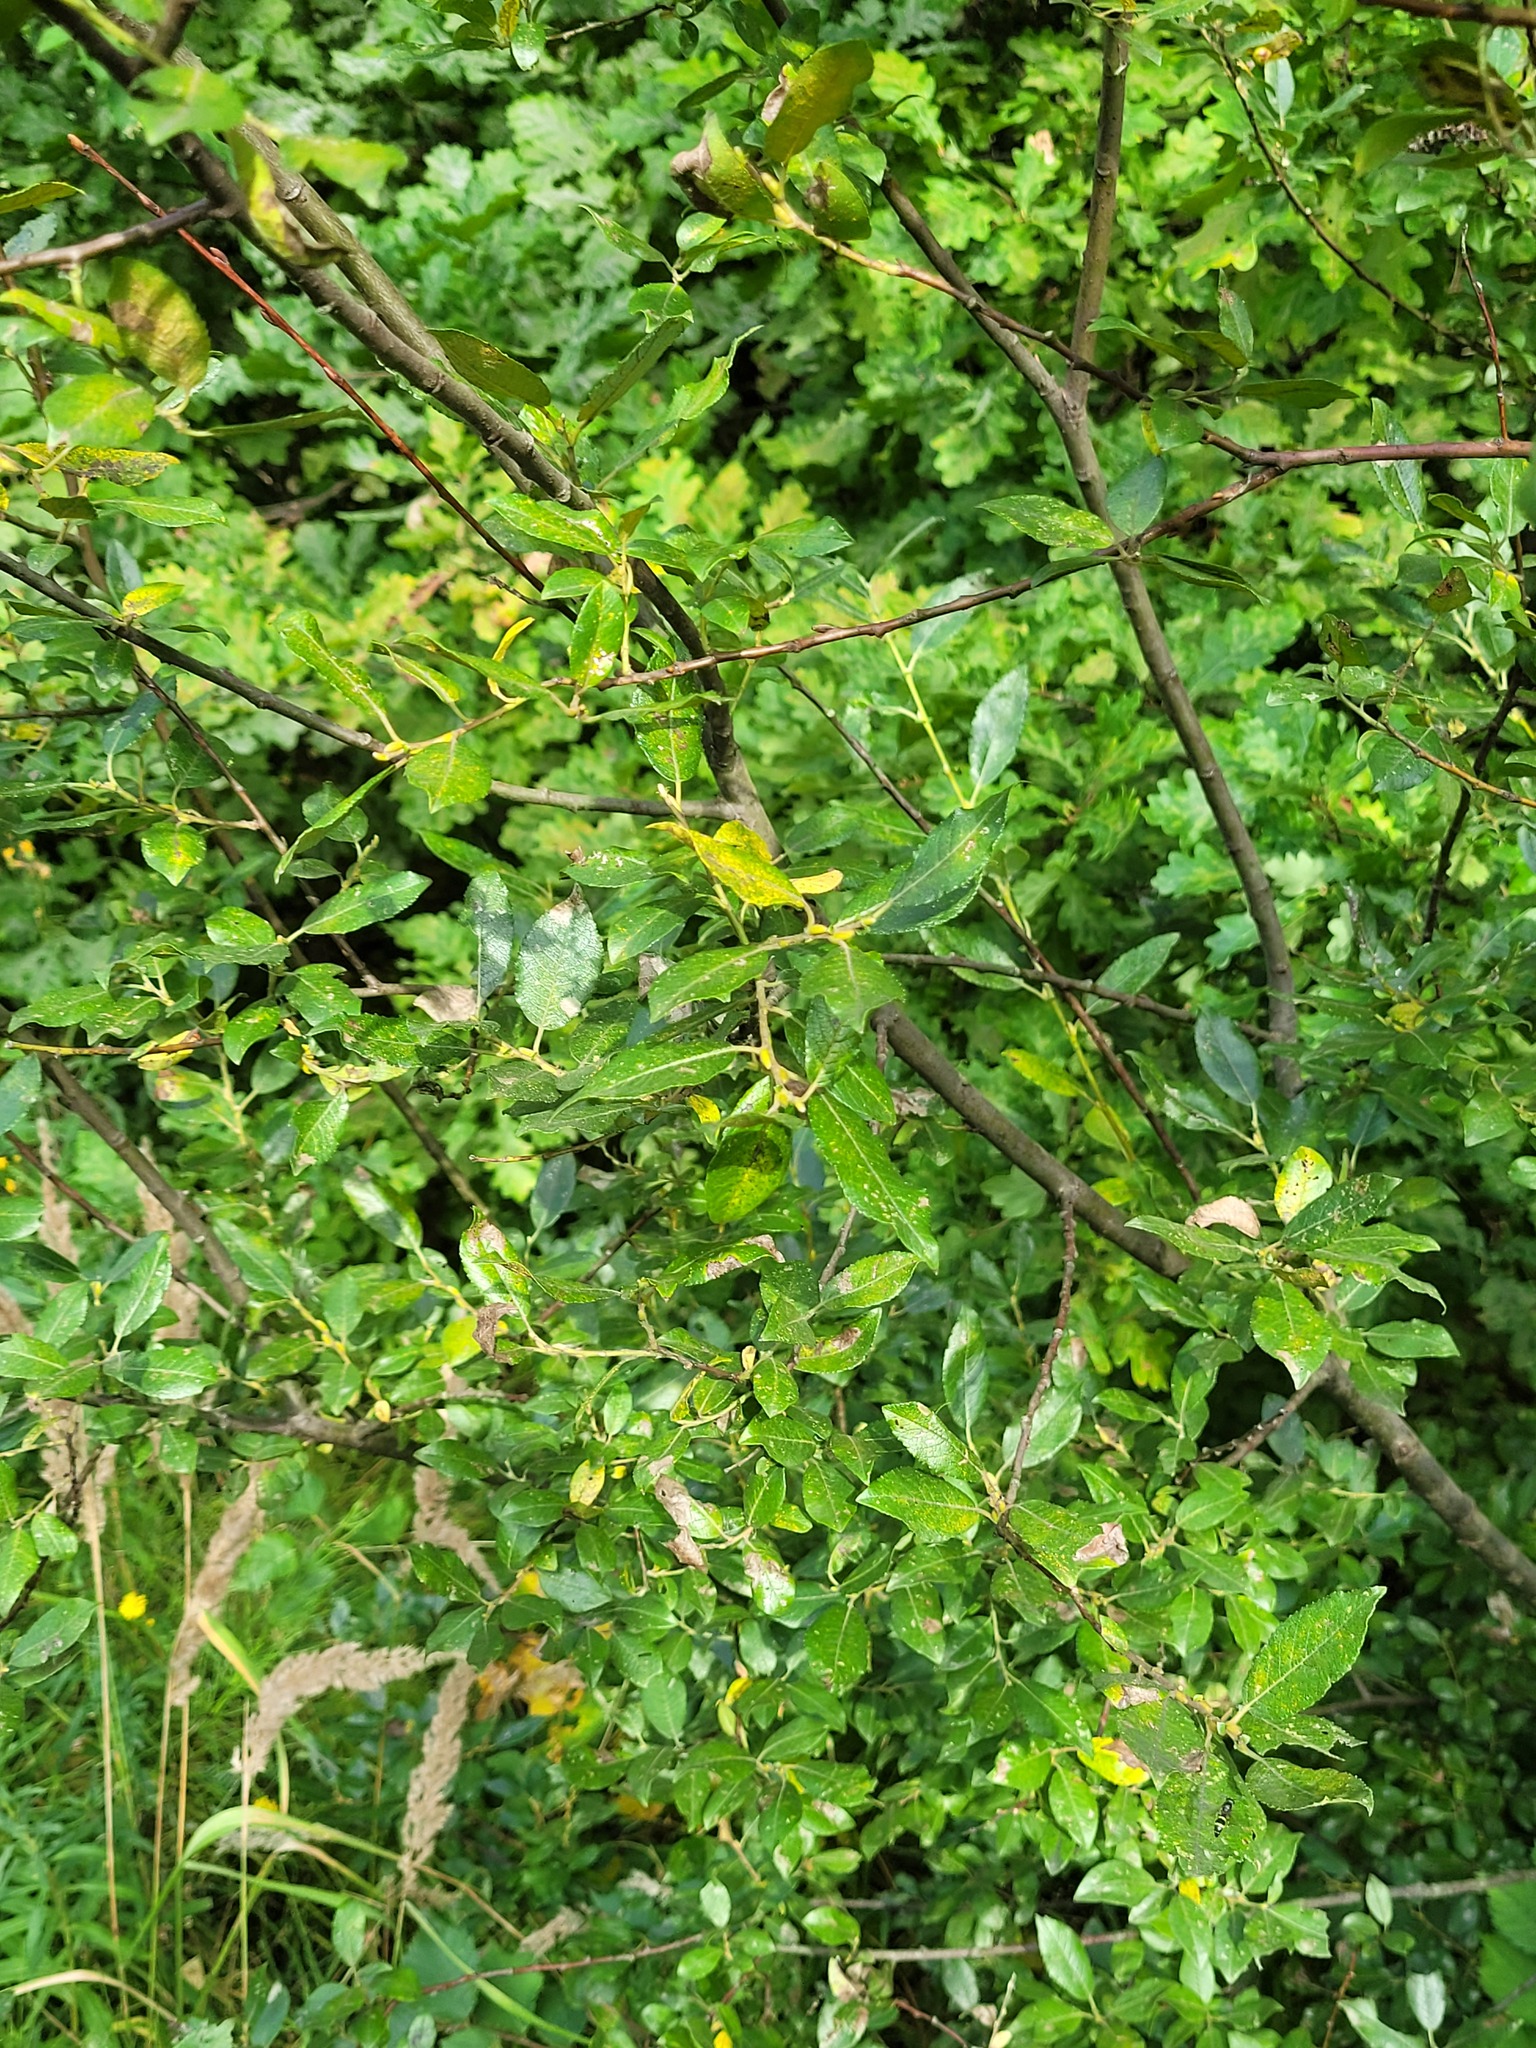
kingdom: Plantae
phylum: Tracheophyta
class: Magnoliopsida
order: Malpighiales
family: Salicaceae
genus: Salix
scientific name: Salix myrsinifolia
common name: Dark-leaved willow
